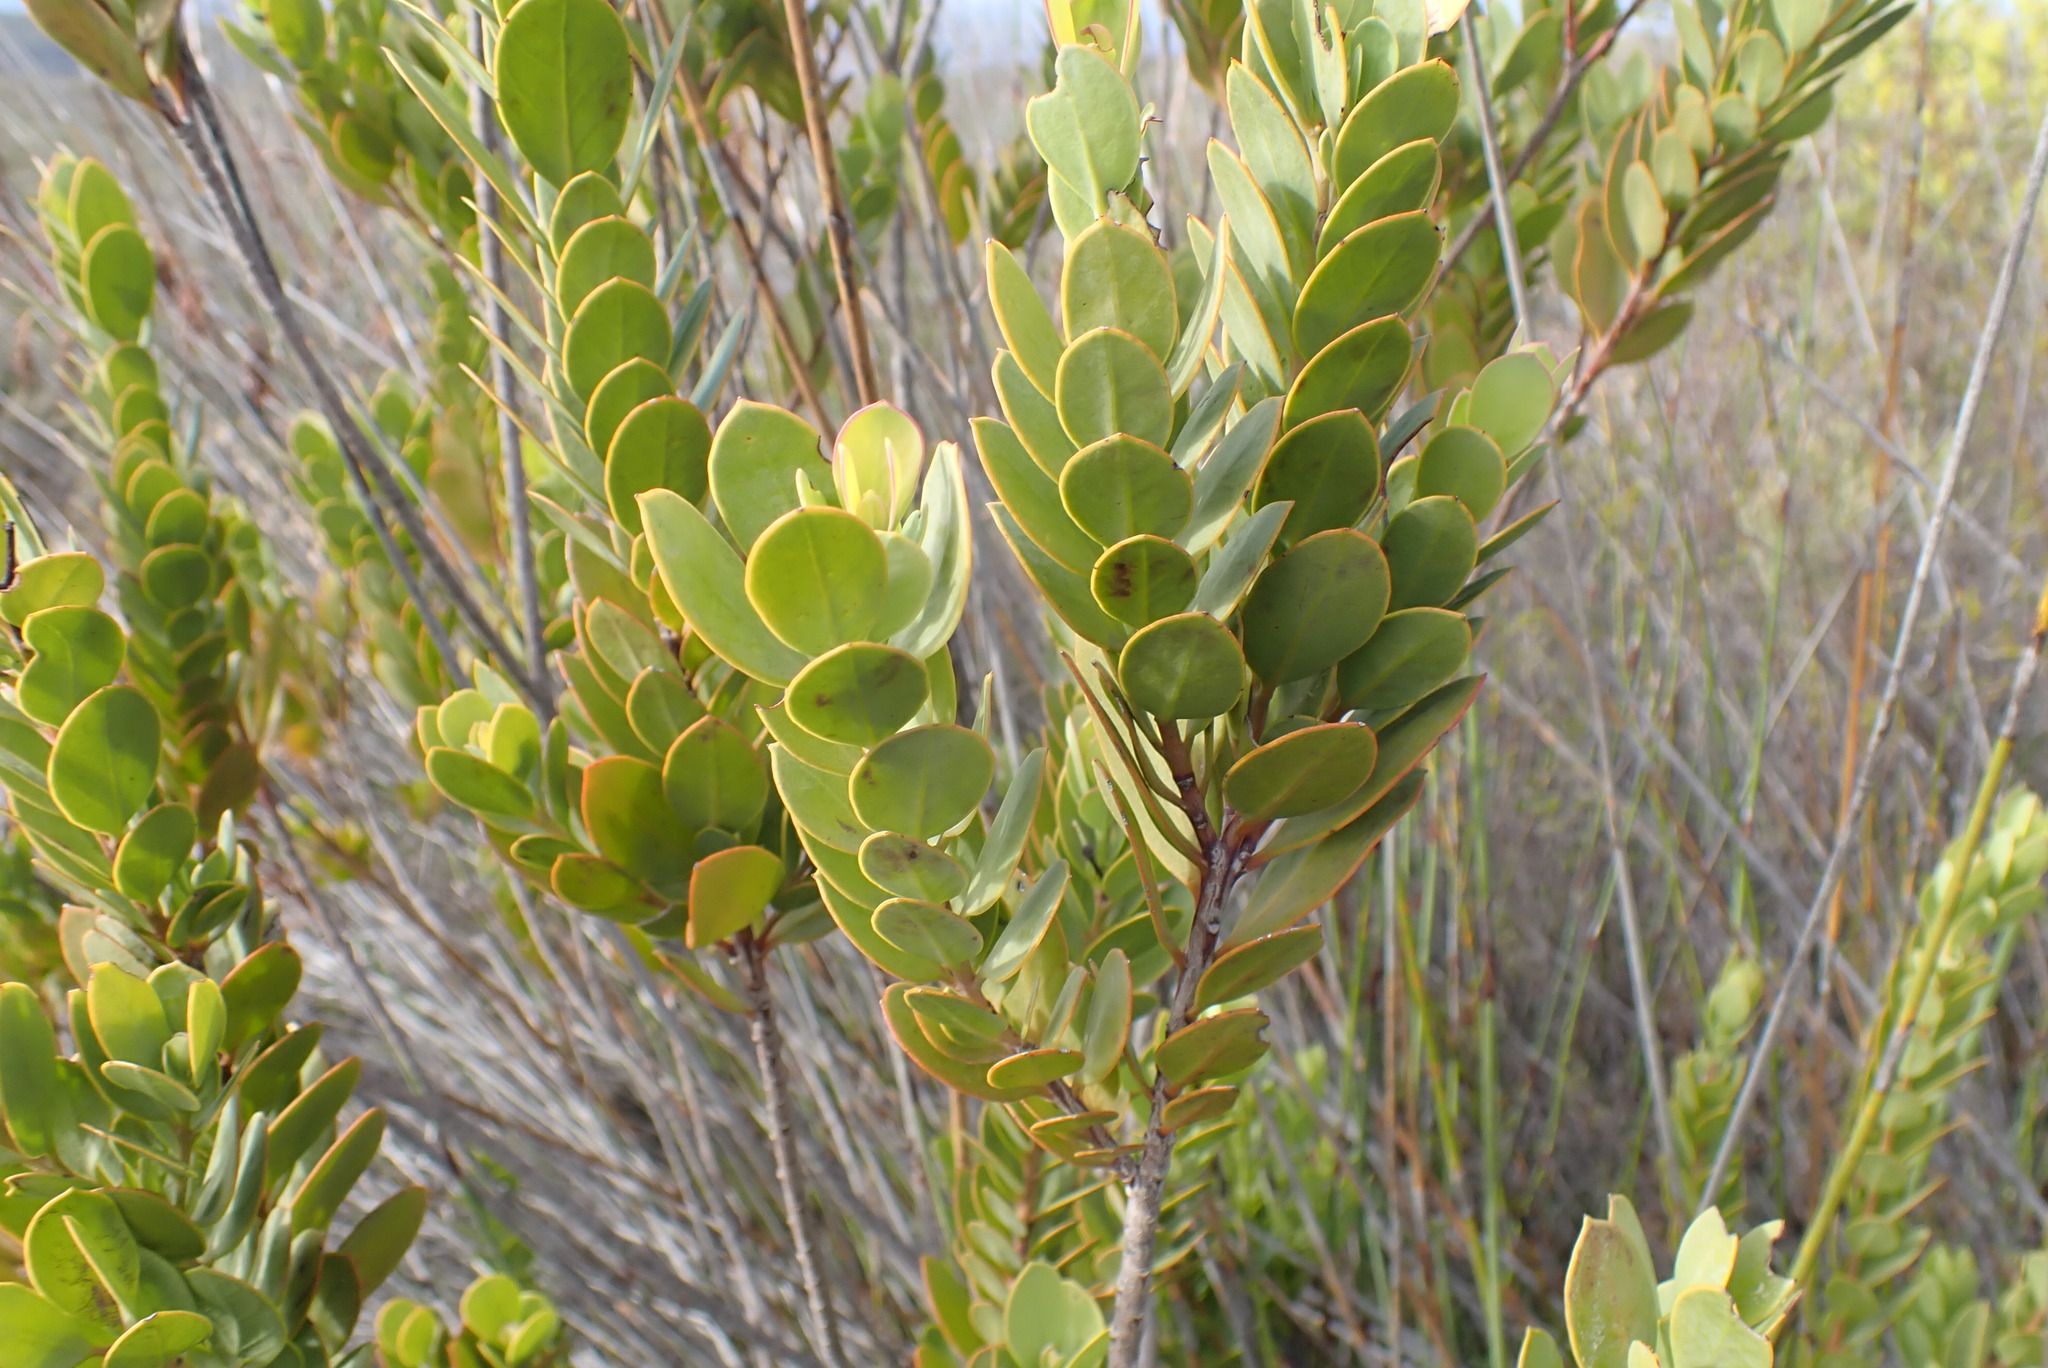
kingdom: Plantae
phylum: Tracheophyta
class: Magnoliopsida
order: Santalales
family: Santalaceae
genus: Osyris
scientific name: Osyris compressa
